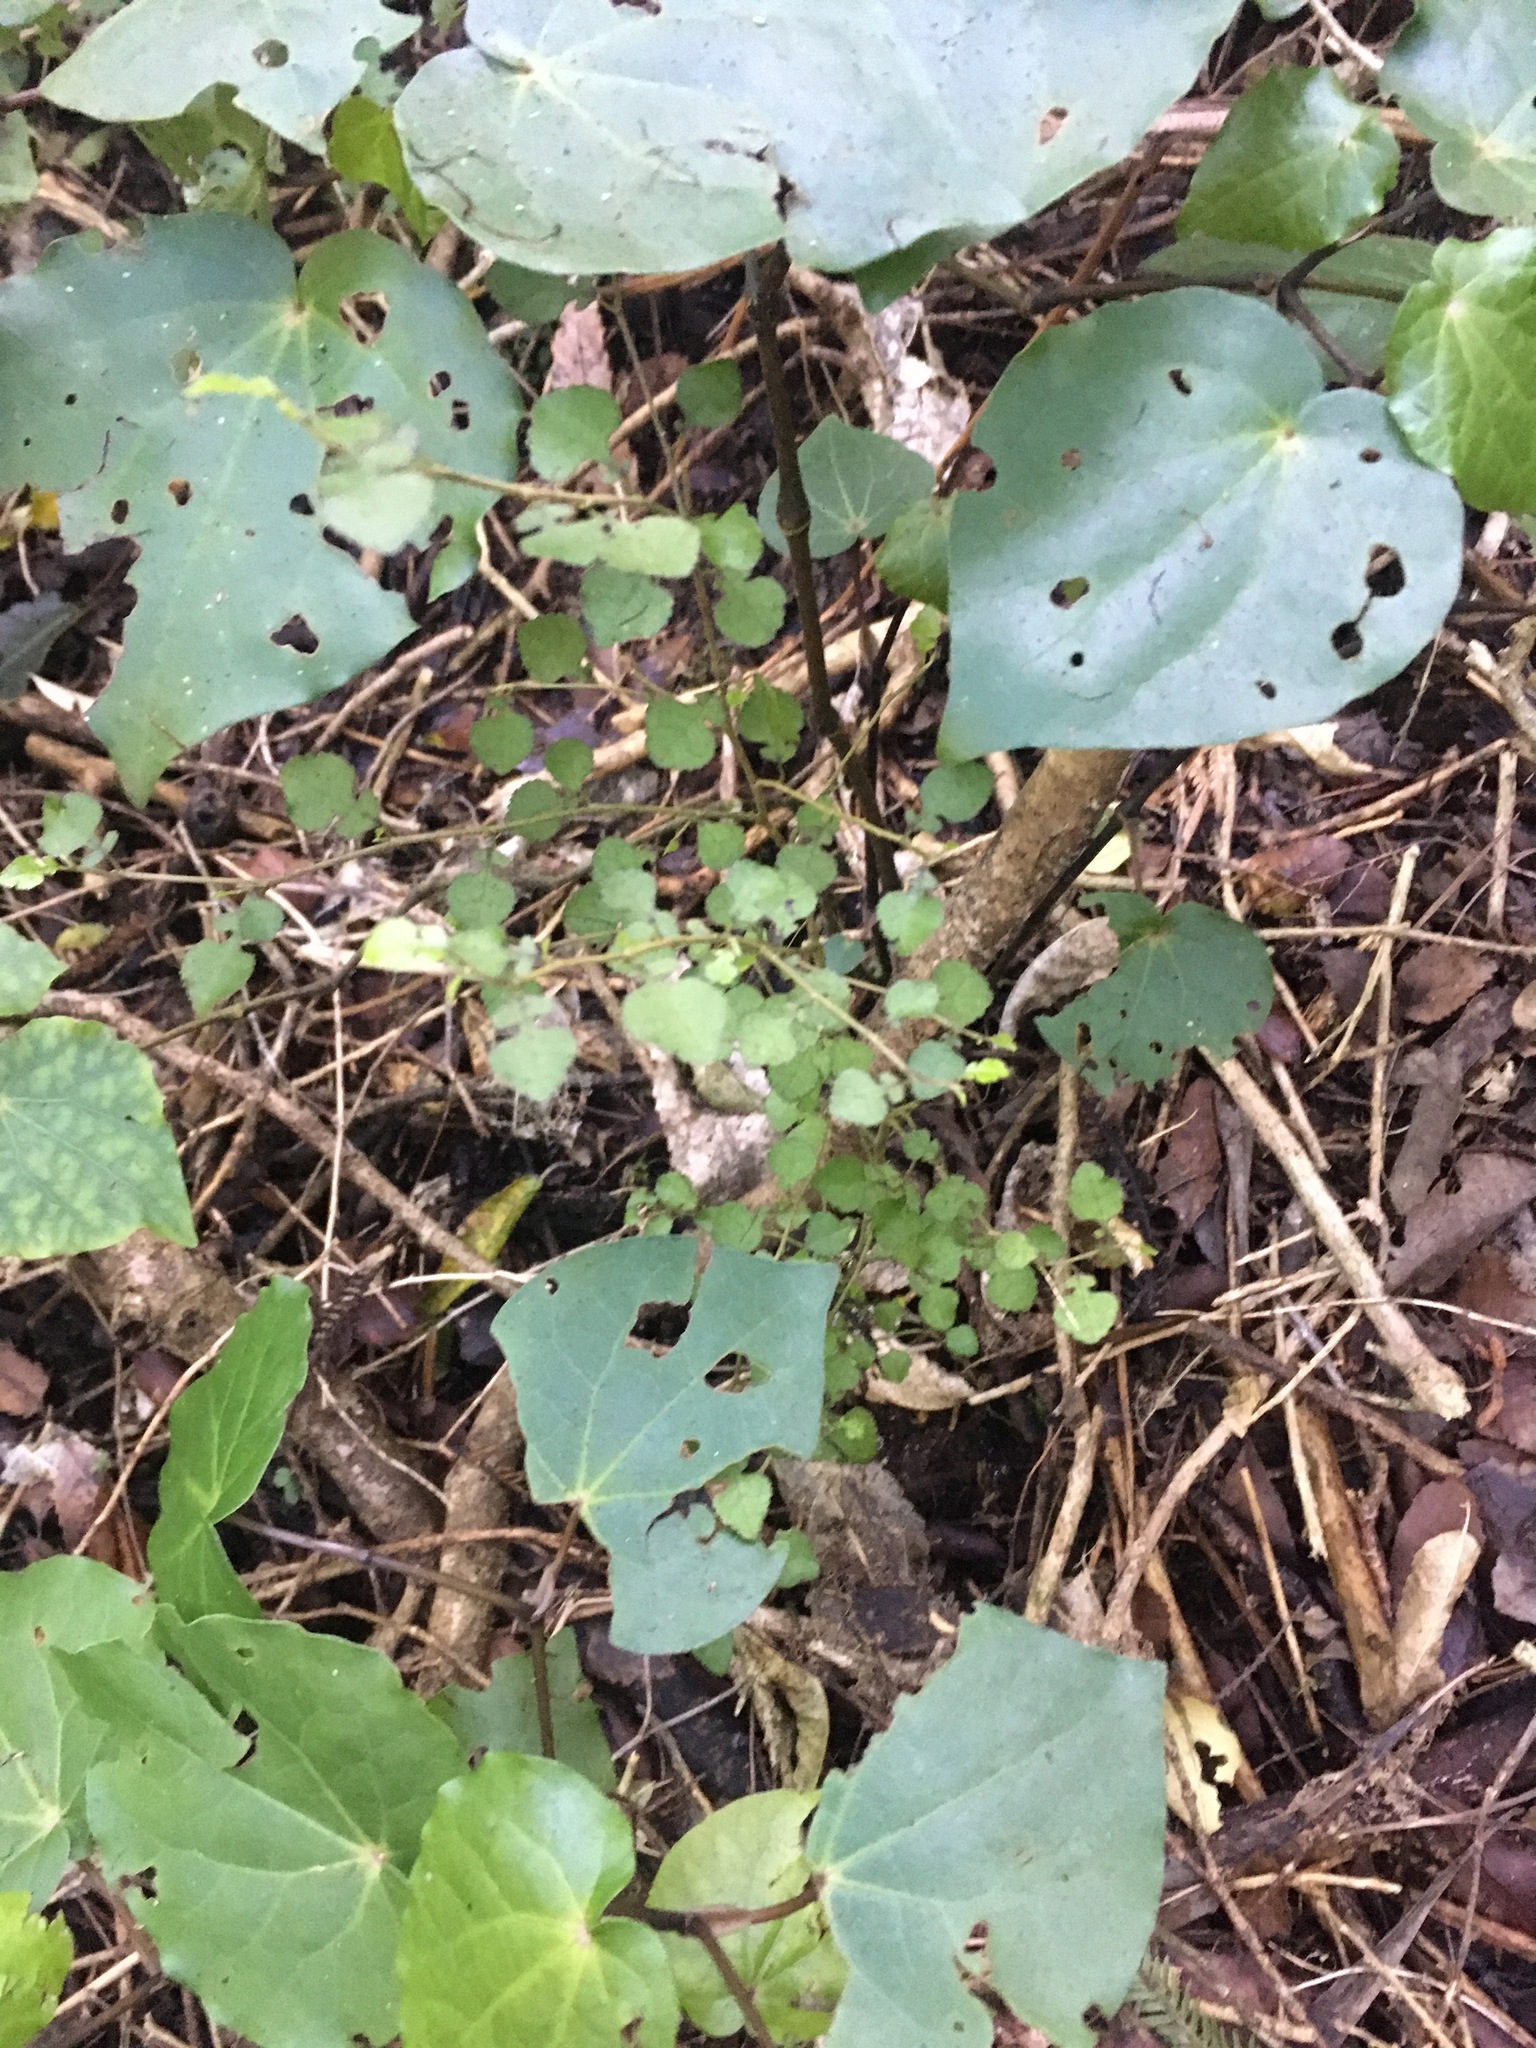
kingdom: Plantae
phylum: Tracheophyta
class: Magnoliopsida
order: Rosales
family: Moraceae
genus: Paratrophis
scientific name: Paratrophis microphylla
